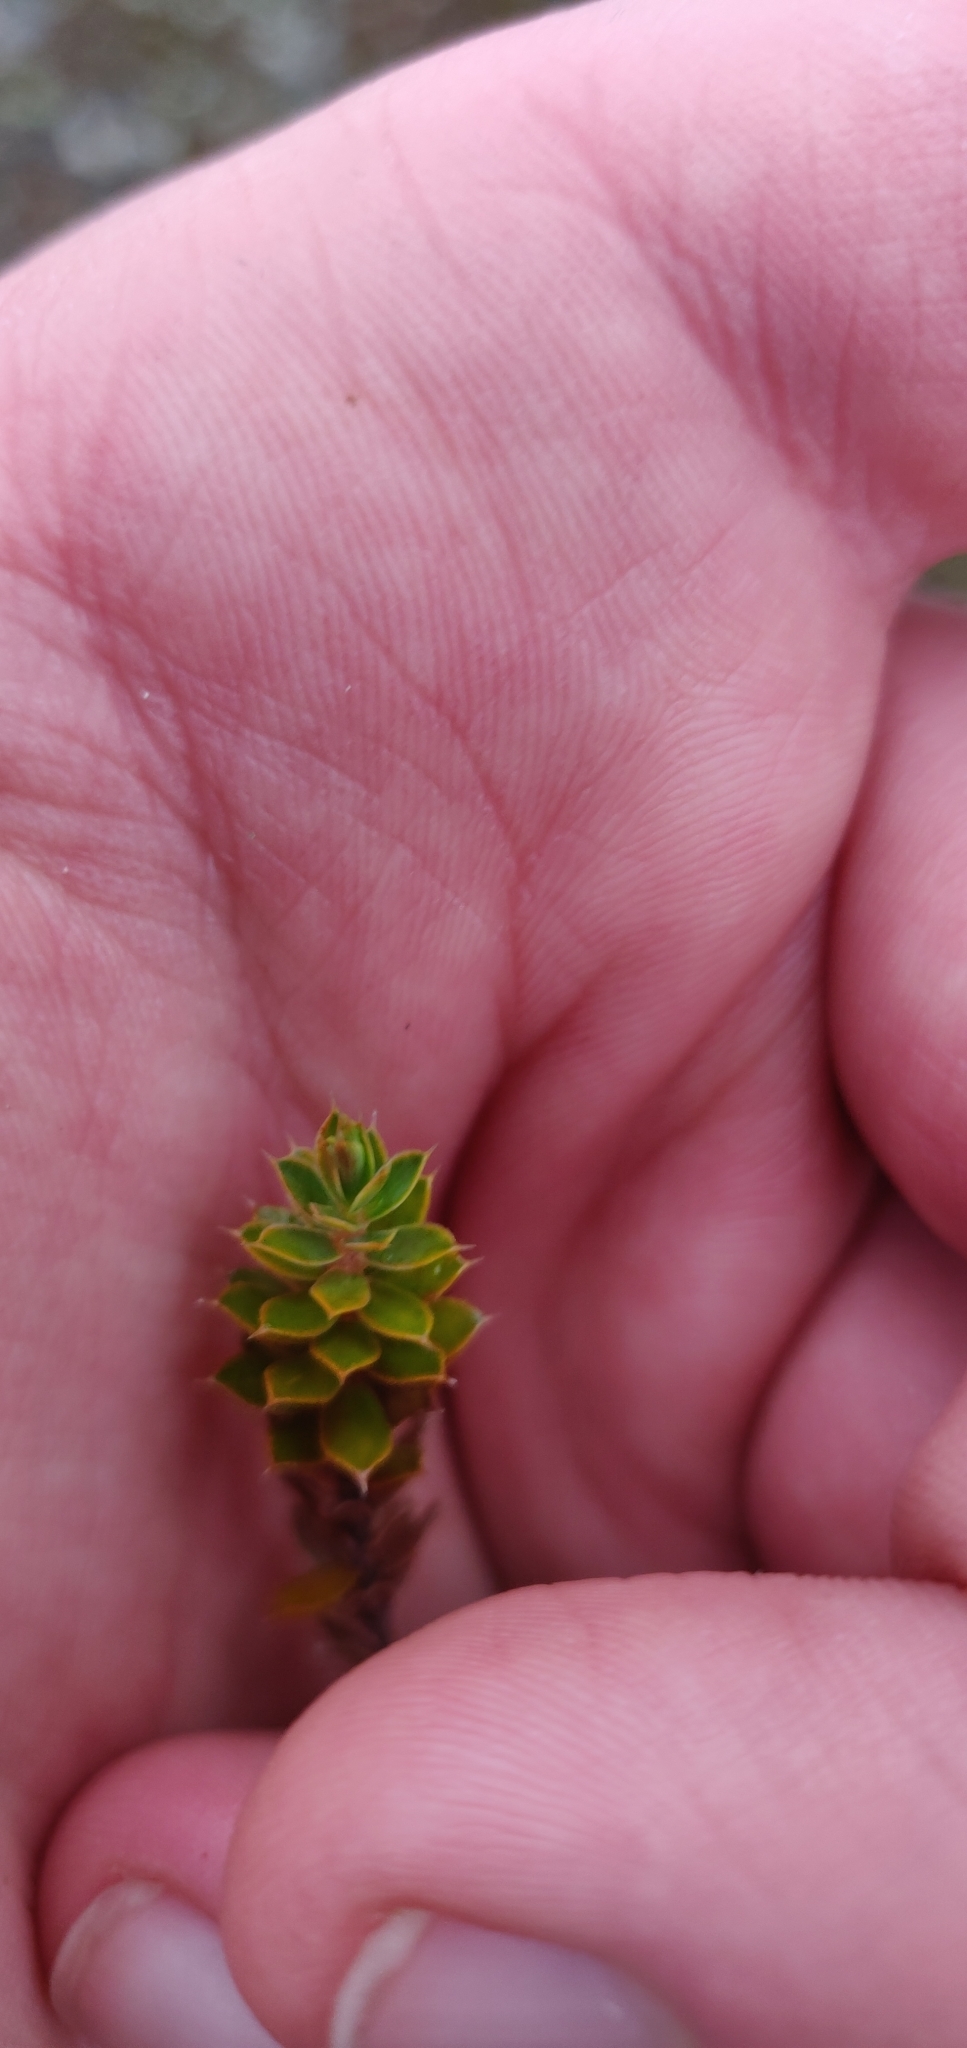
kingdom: Plantae
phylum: Tracheophyta
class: Magnoliopsida
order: Ericales
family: Ericaceae
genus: Styphelia
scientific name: Styphelia nesophila
